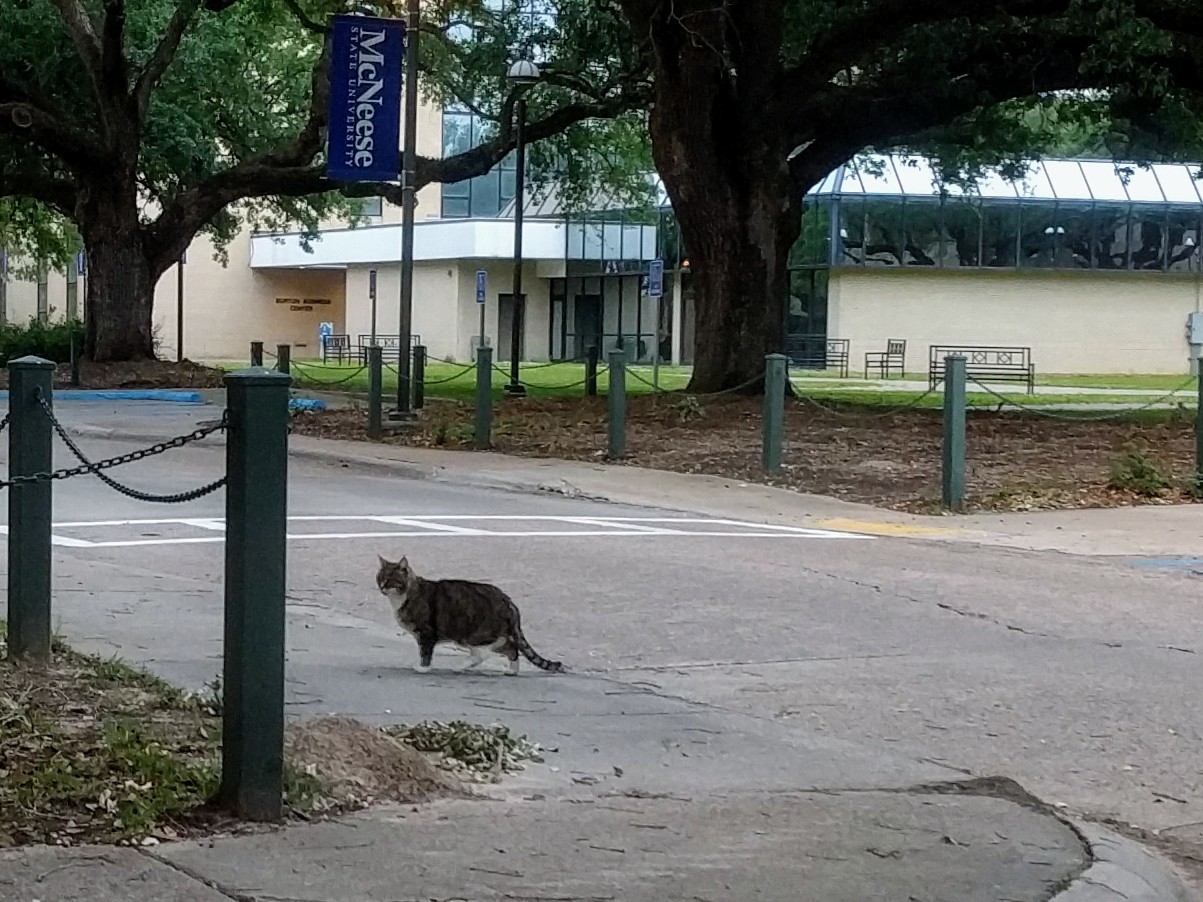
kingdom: Animalia
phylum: Chordata
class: Mammalia
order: Carnivora
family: Felidae
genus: Felis
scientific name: Felis catus
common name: Domestic cat
